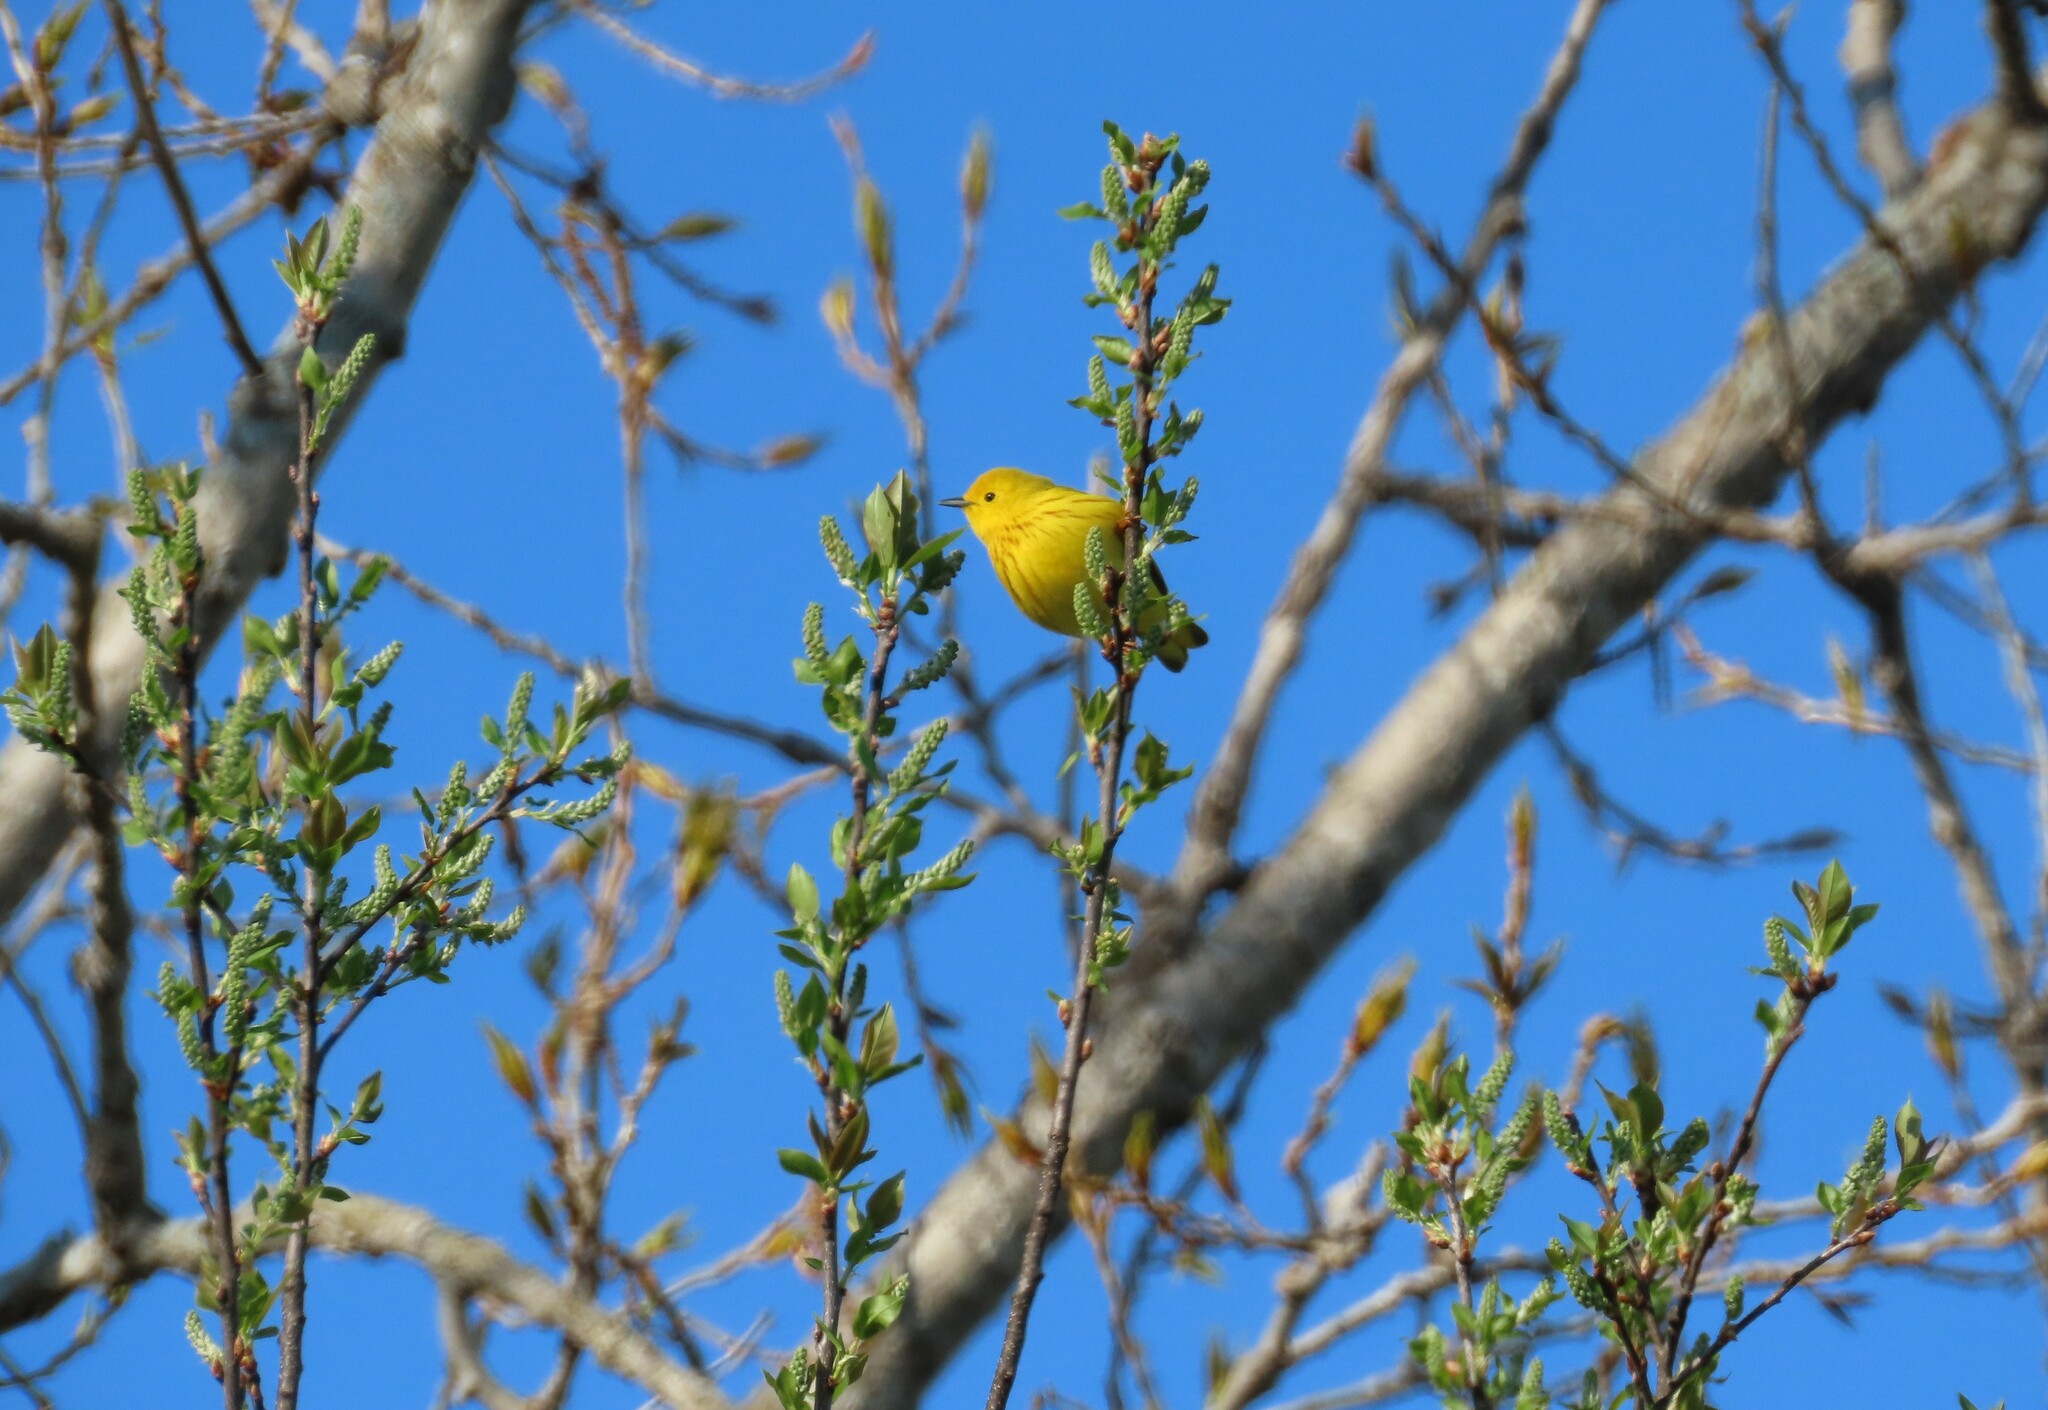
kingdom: Animalia
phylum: Chordata
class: Aves
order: Passeriformes
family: Parulidae
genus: Setophaga
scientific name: Setophaga petechia
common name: Yellow warbler
